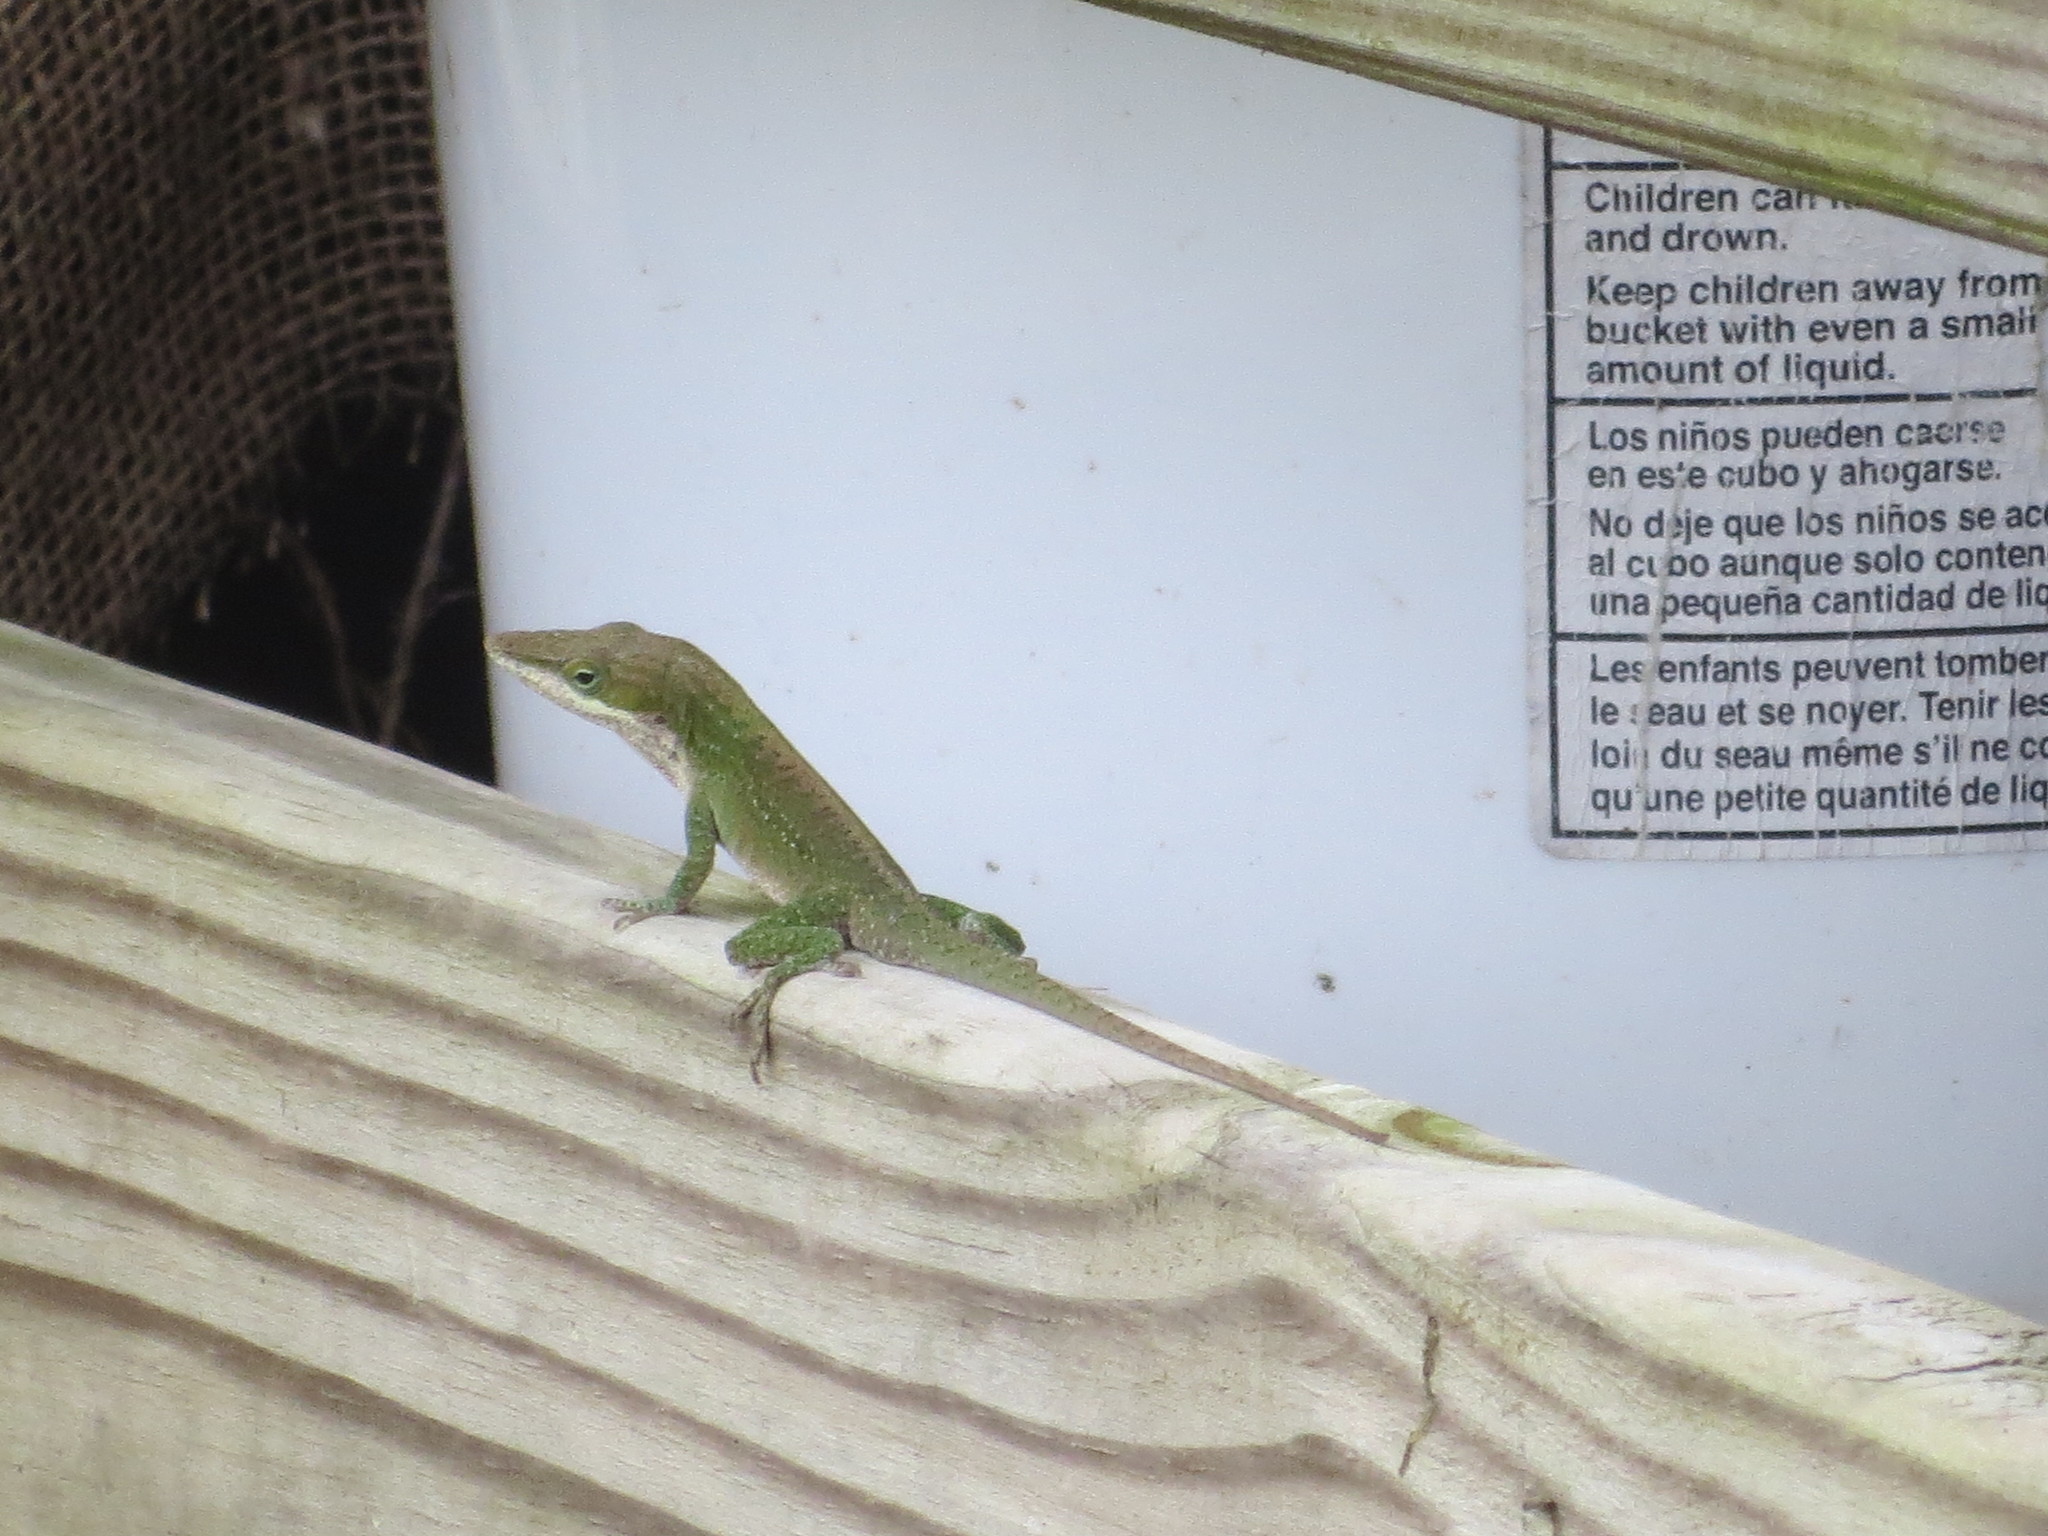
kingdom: Animalia
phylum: Chordata
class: Squamata
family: Dactyloidae
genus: Anolis
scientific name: Anolis carolinensis
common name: Green anole
